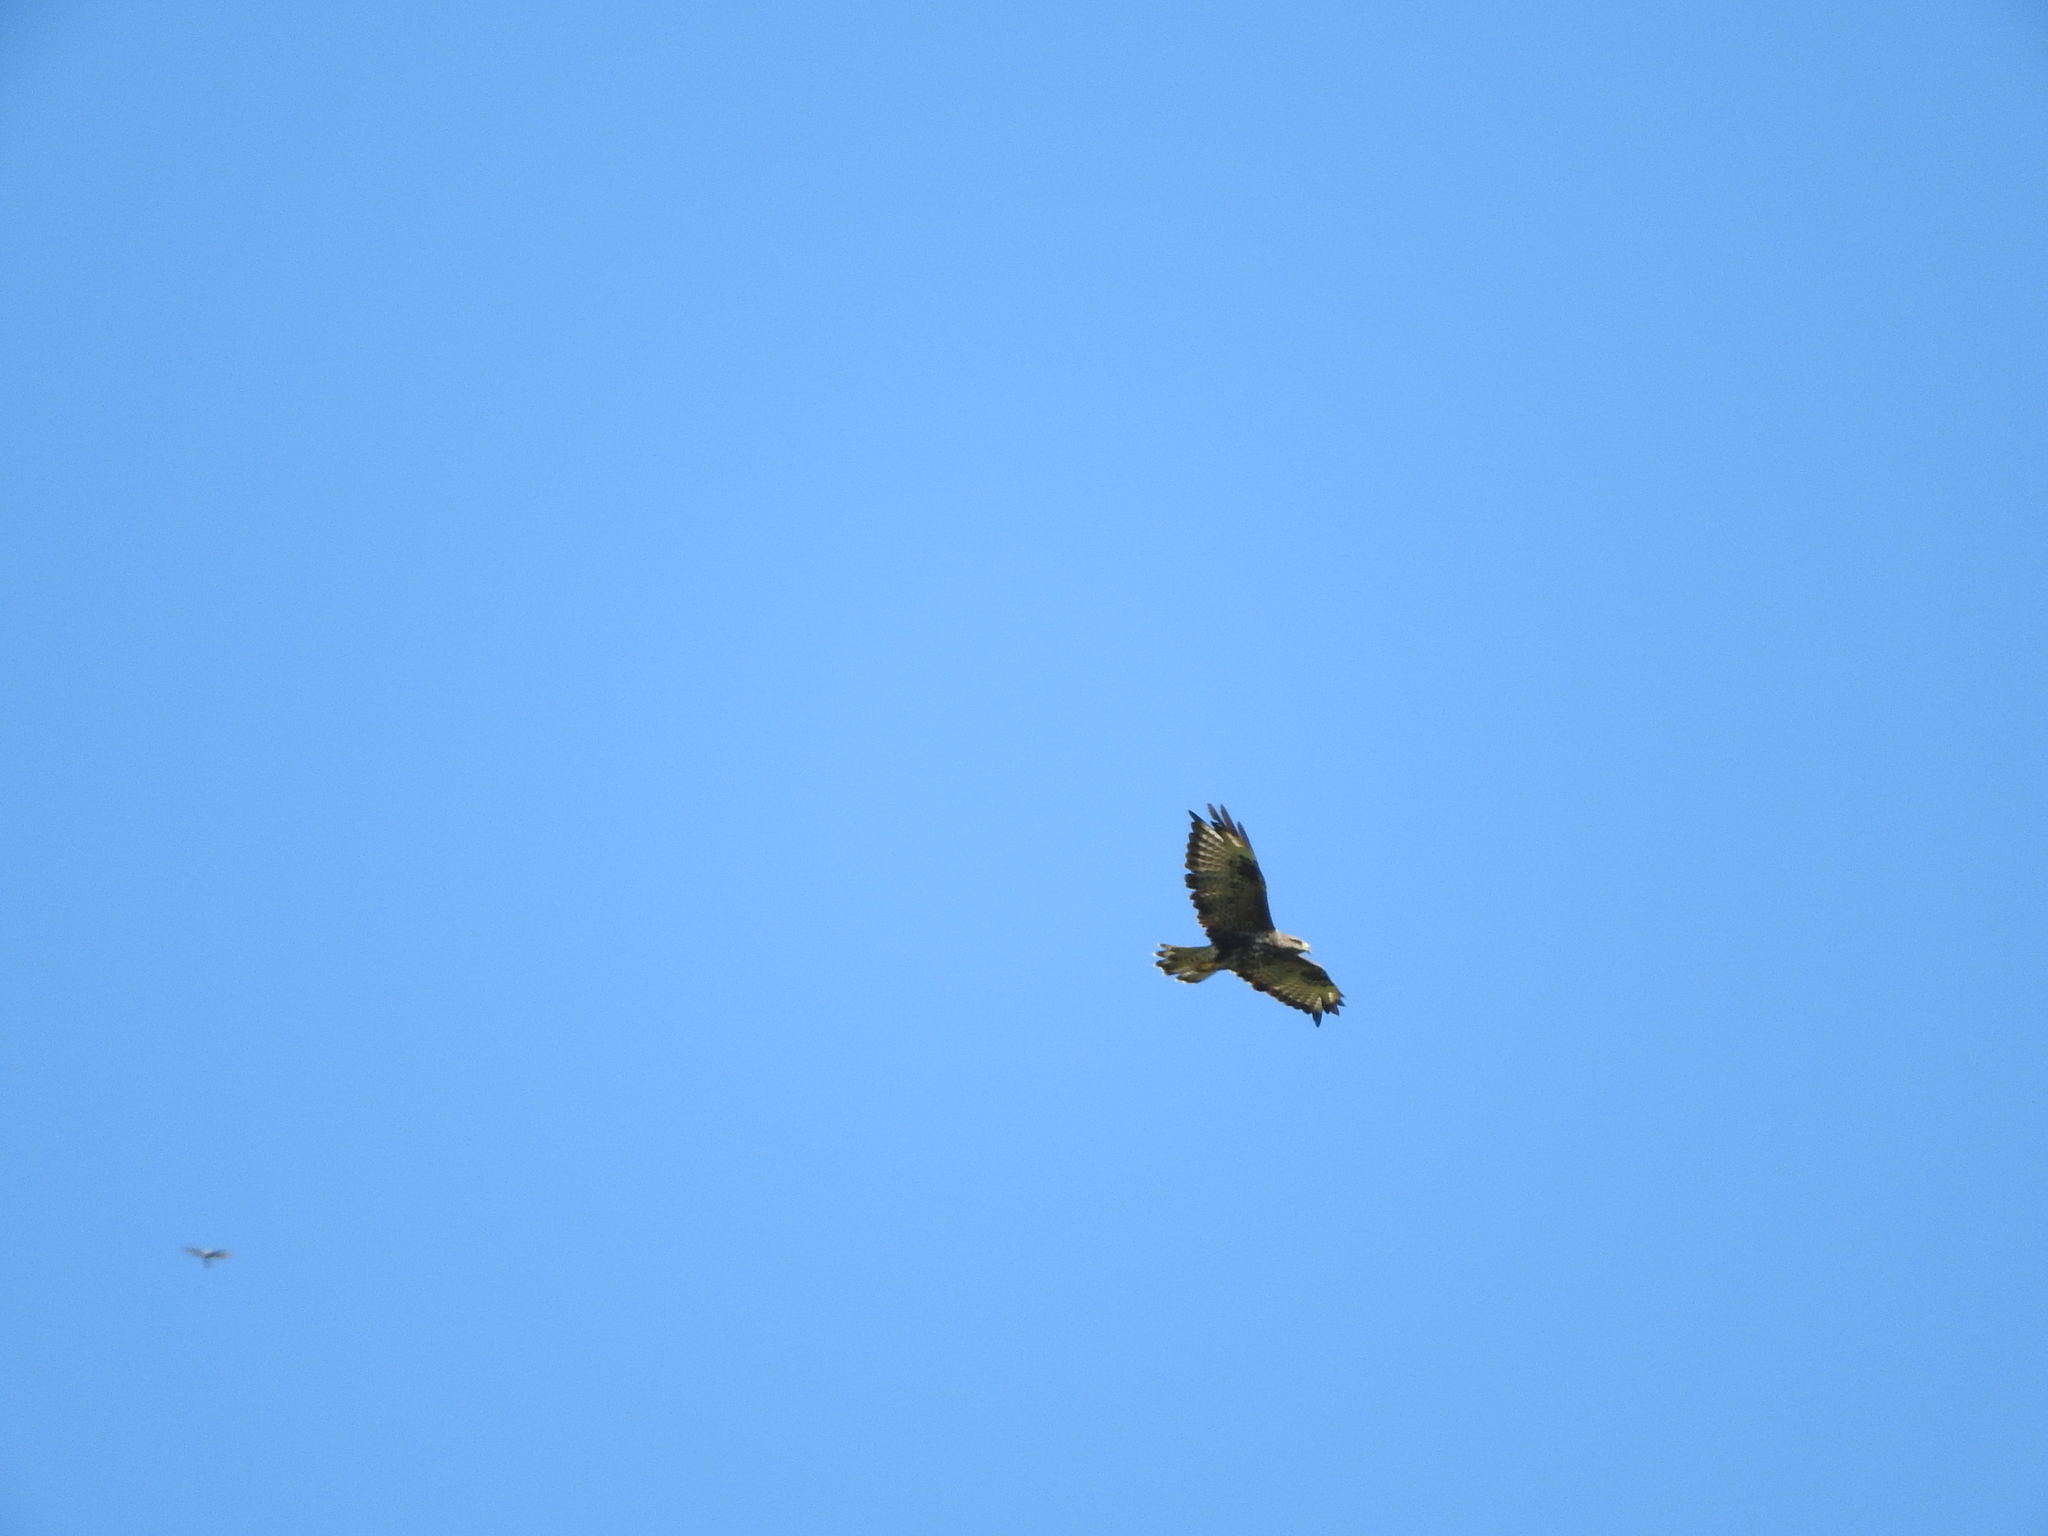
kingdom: Animalia
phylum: Chordata
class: Aves
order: Accipitriformes
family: Accipitridae
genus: Buteo
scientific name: Buteo buteo
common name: Common buzzard
